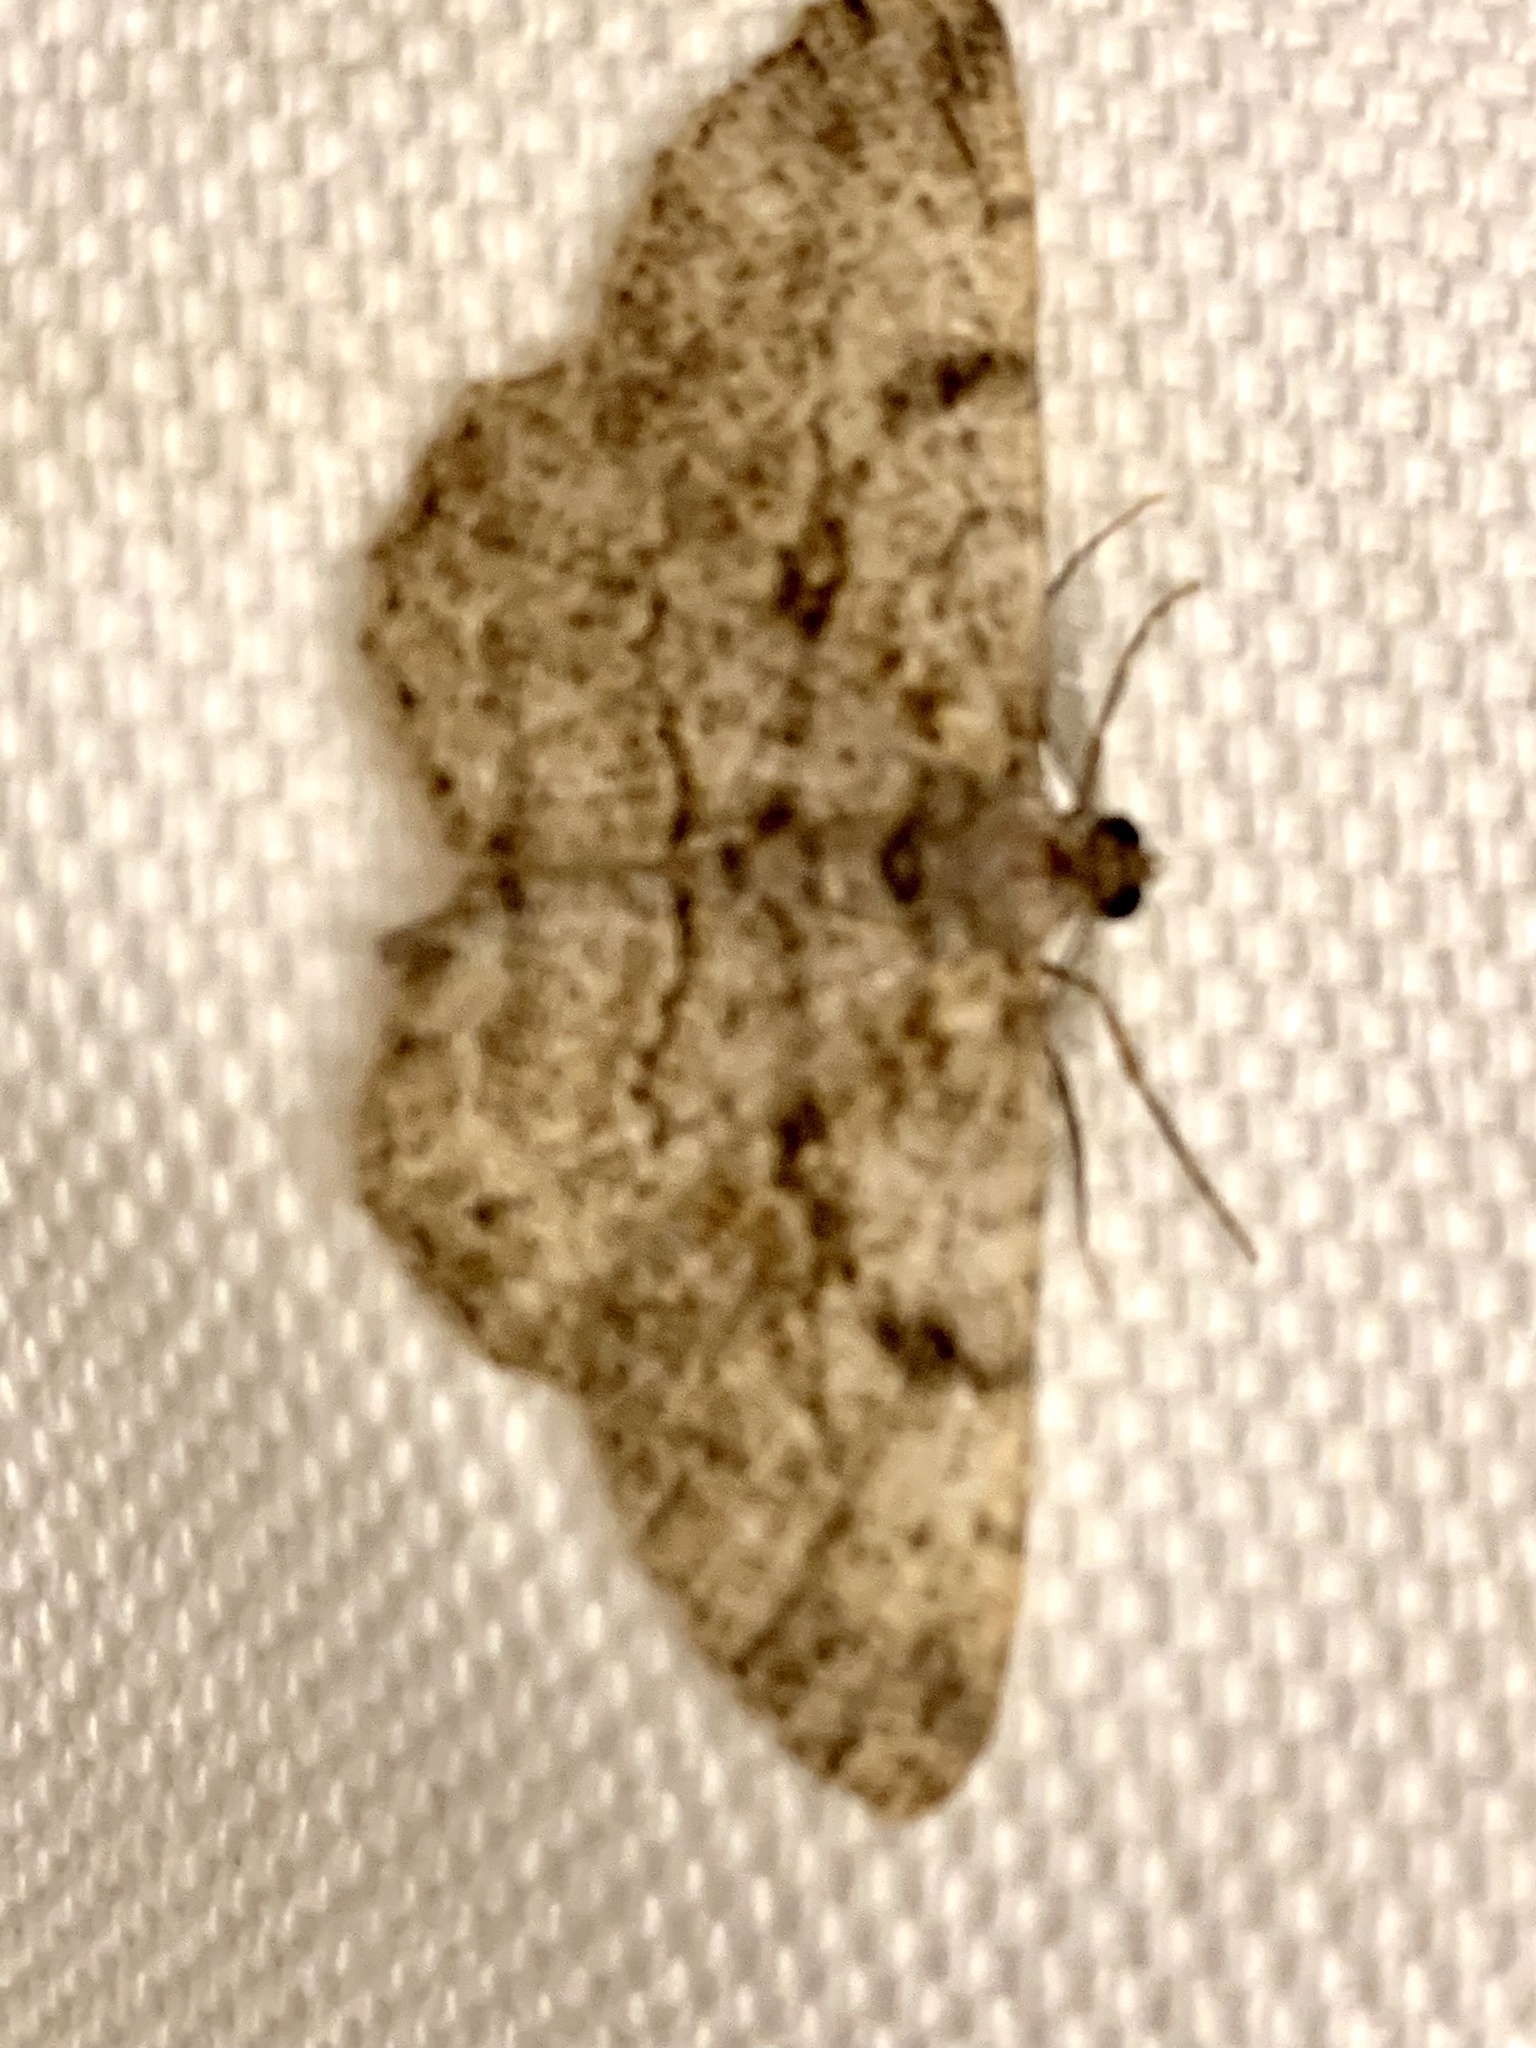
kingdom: Animalia
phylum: Arthropoda
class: Insecta
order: Lepidoptera
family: Geometridae
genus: Peribatodes
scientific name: Peribatodes rhomboidaria
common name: Willow beauty
